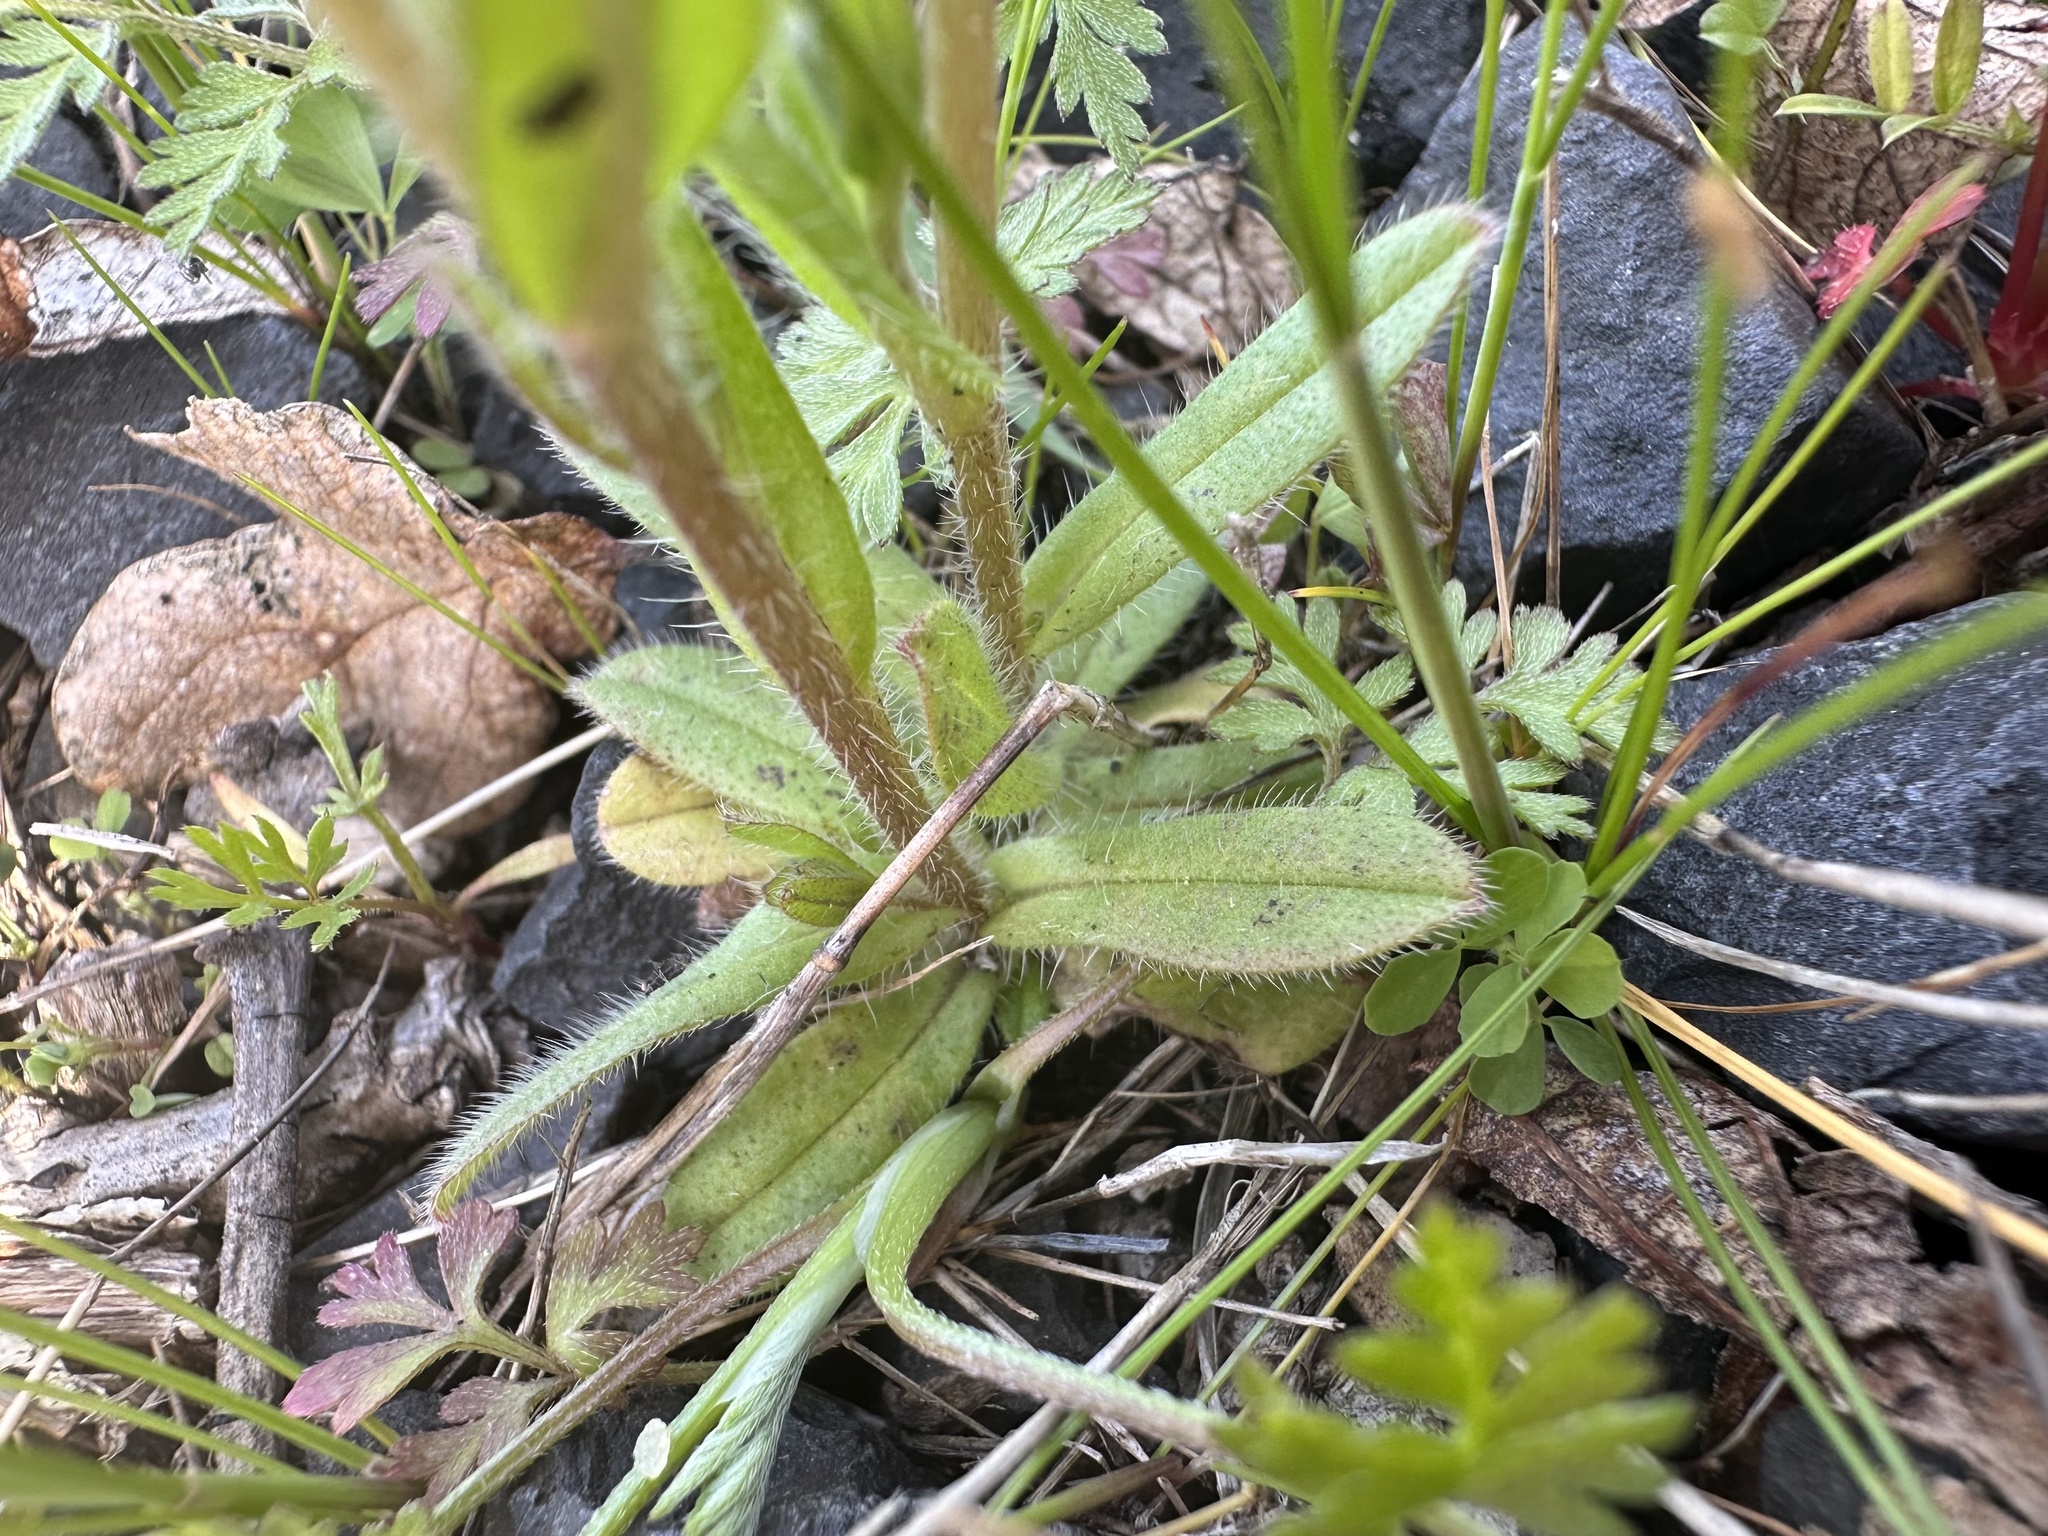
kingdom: Plantae
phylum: Tracheophyta
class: Magnoliopsida
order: Boraginales
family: Boraginaceae
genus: Myosotis
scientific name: Myosotis discolor
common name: Changing forget-me-not
